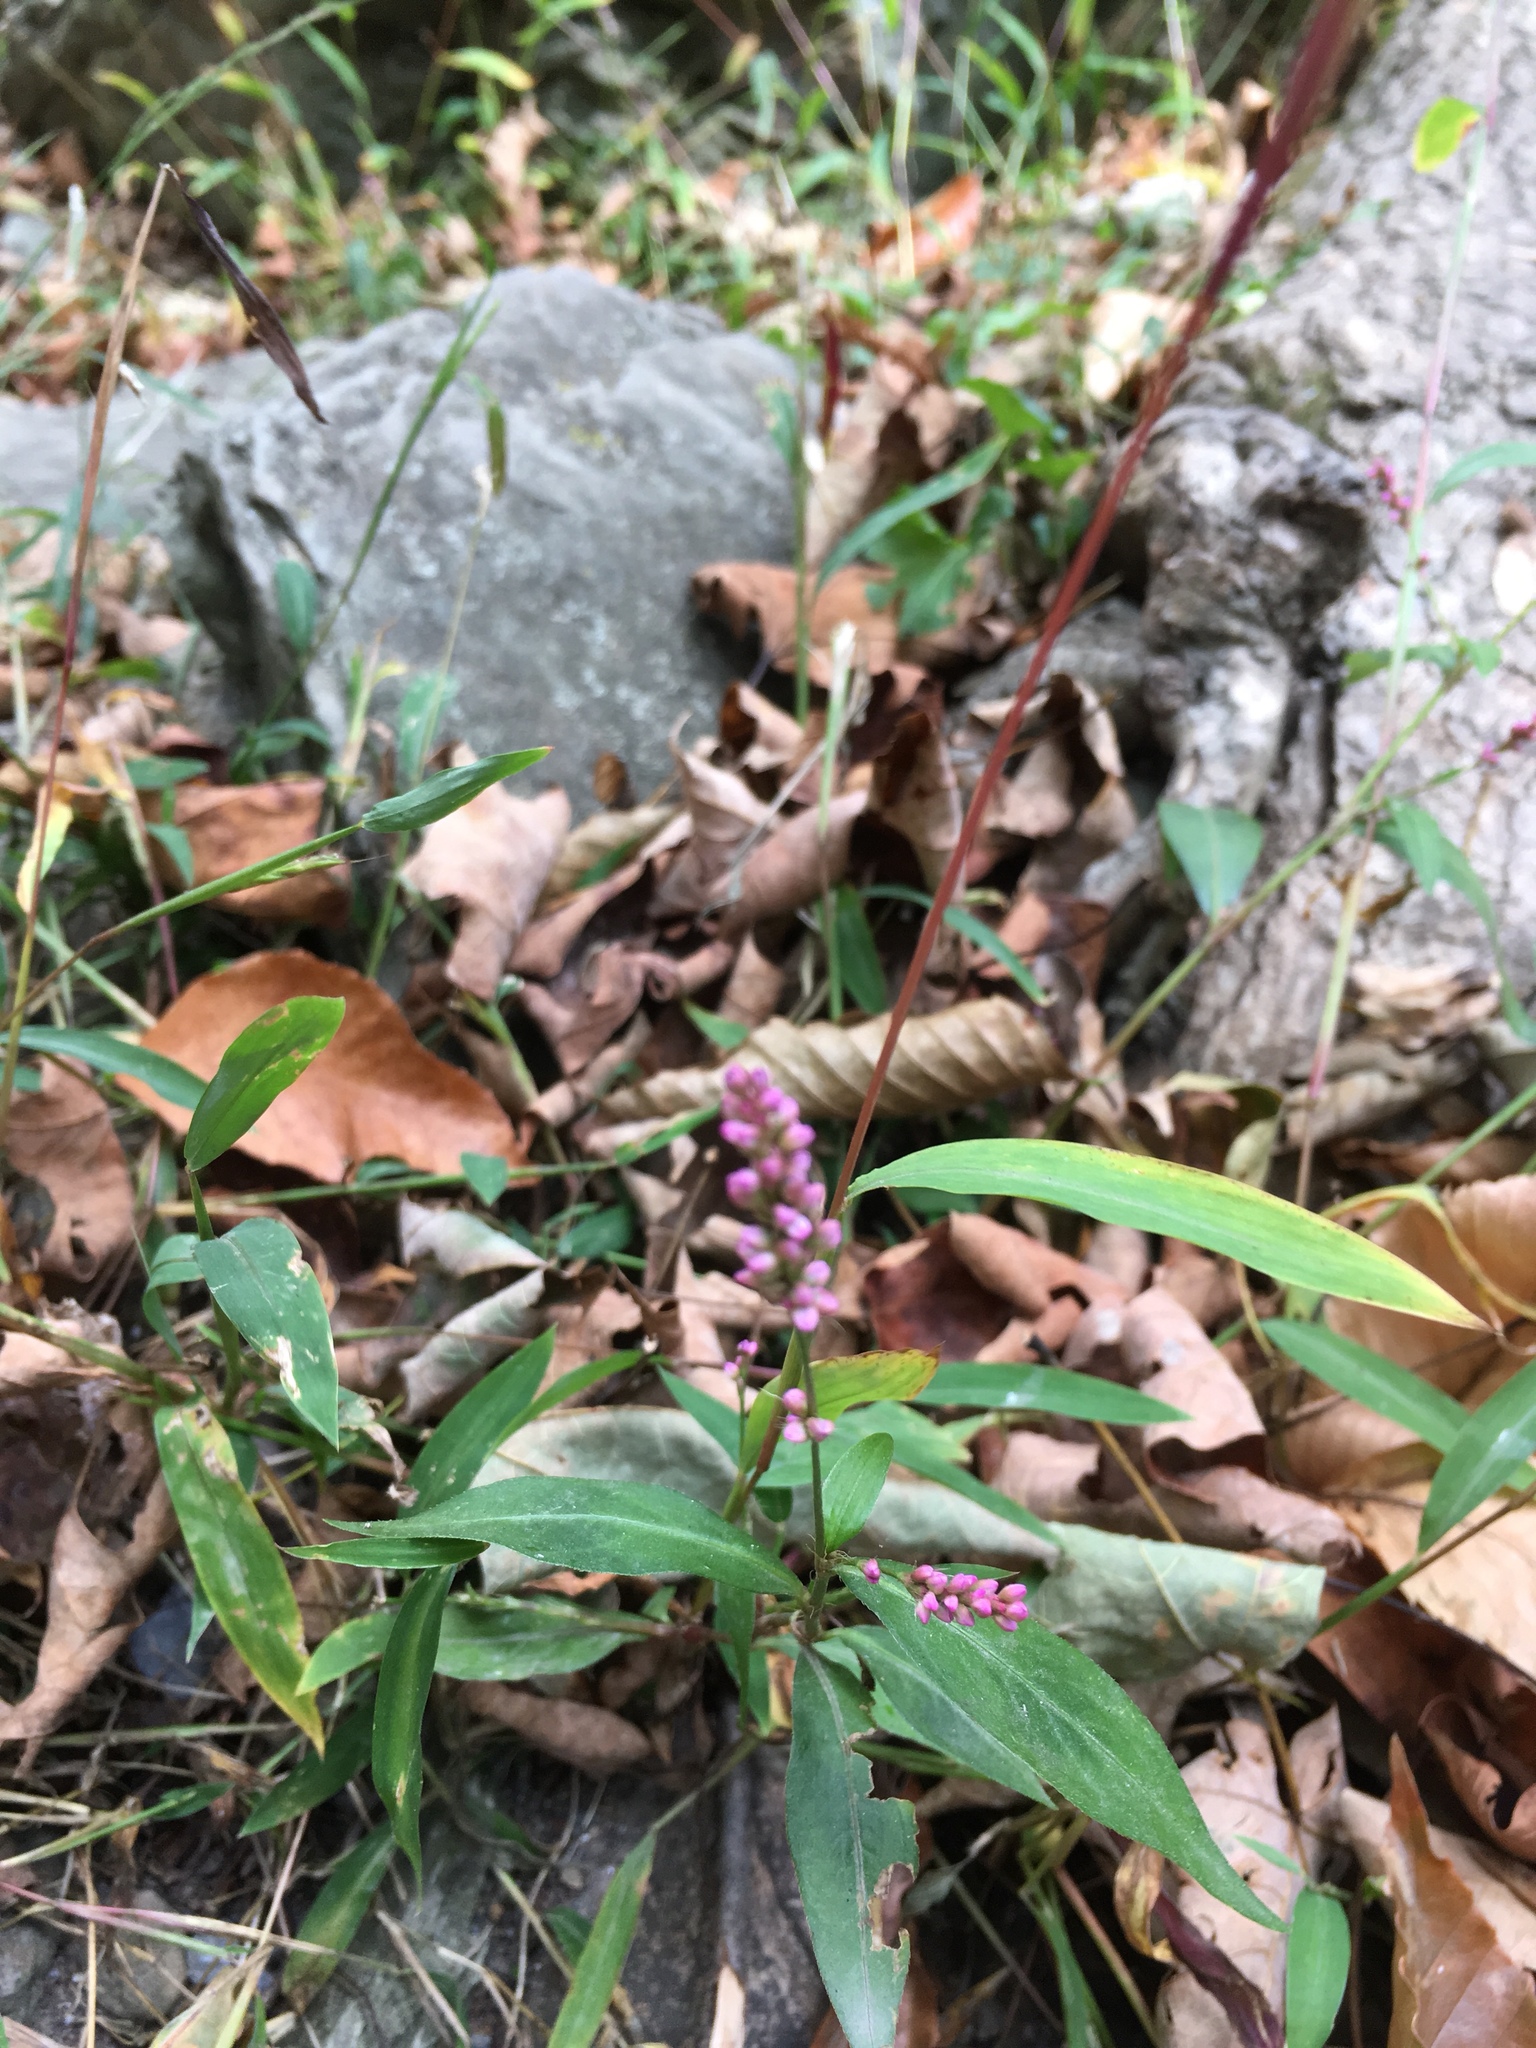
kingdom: Plantae
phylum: Tracheophyta
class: Magnoliopsida
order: Caryophyllales
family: Polygonaceae
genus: Persicaria
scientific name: Persicaria longiseta
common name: Bristly lady's-thumb
